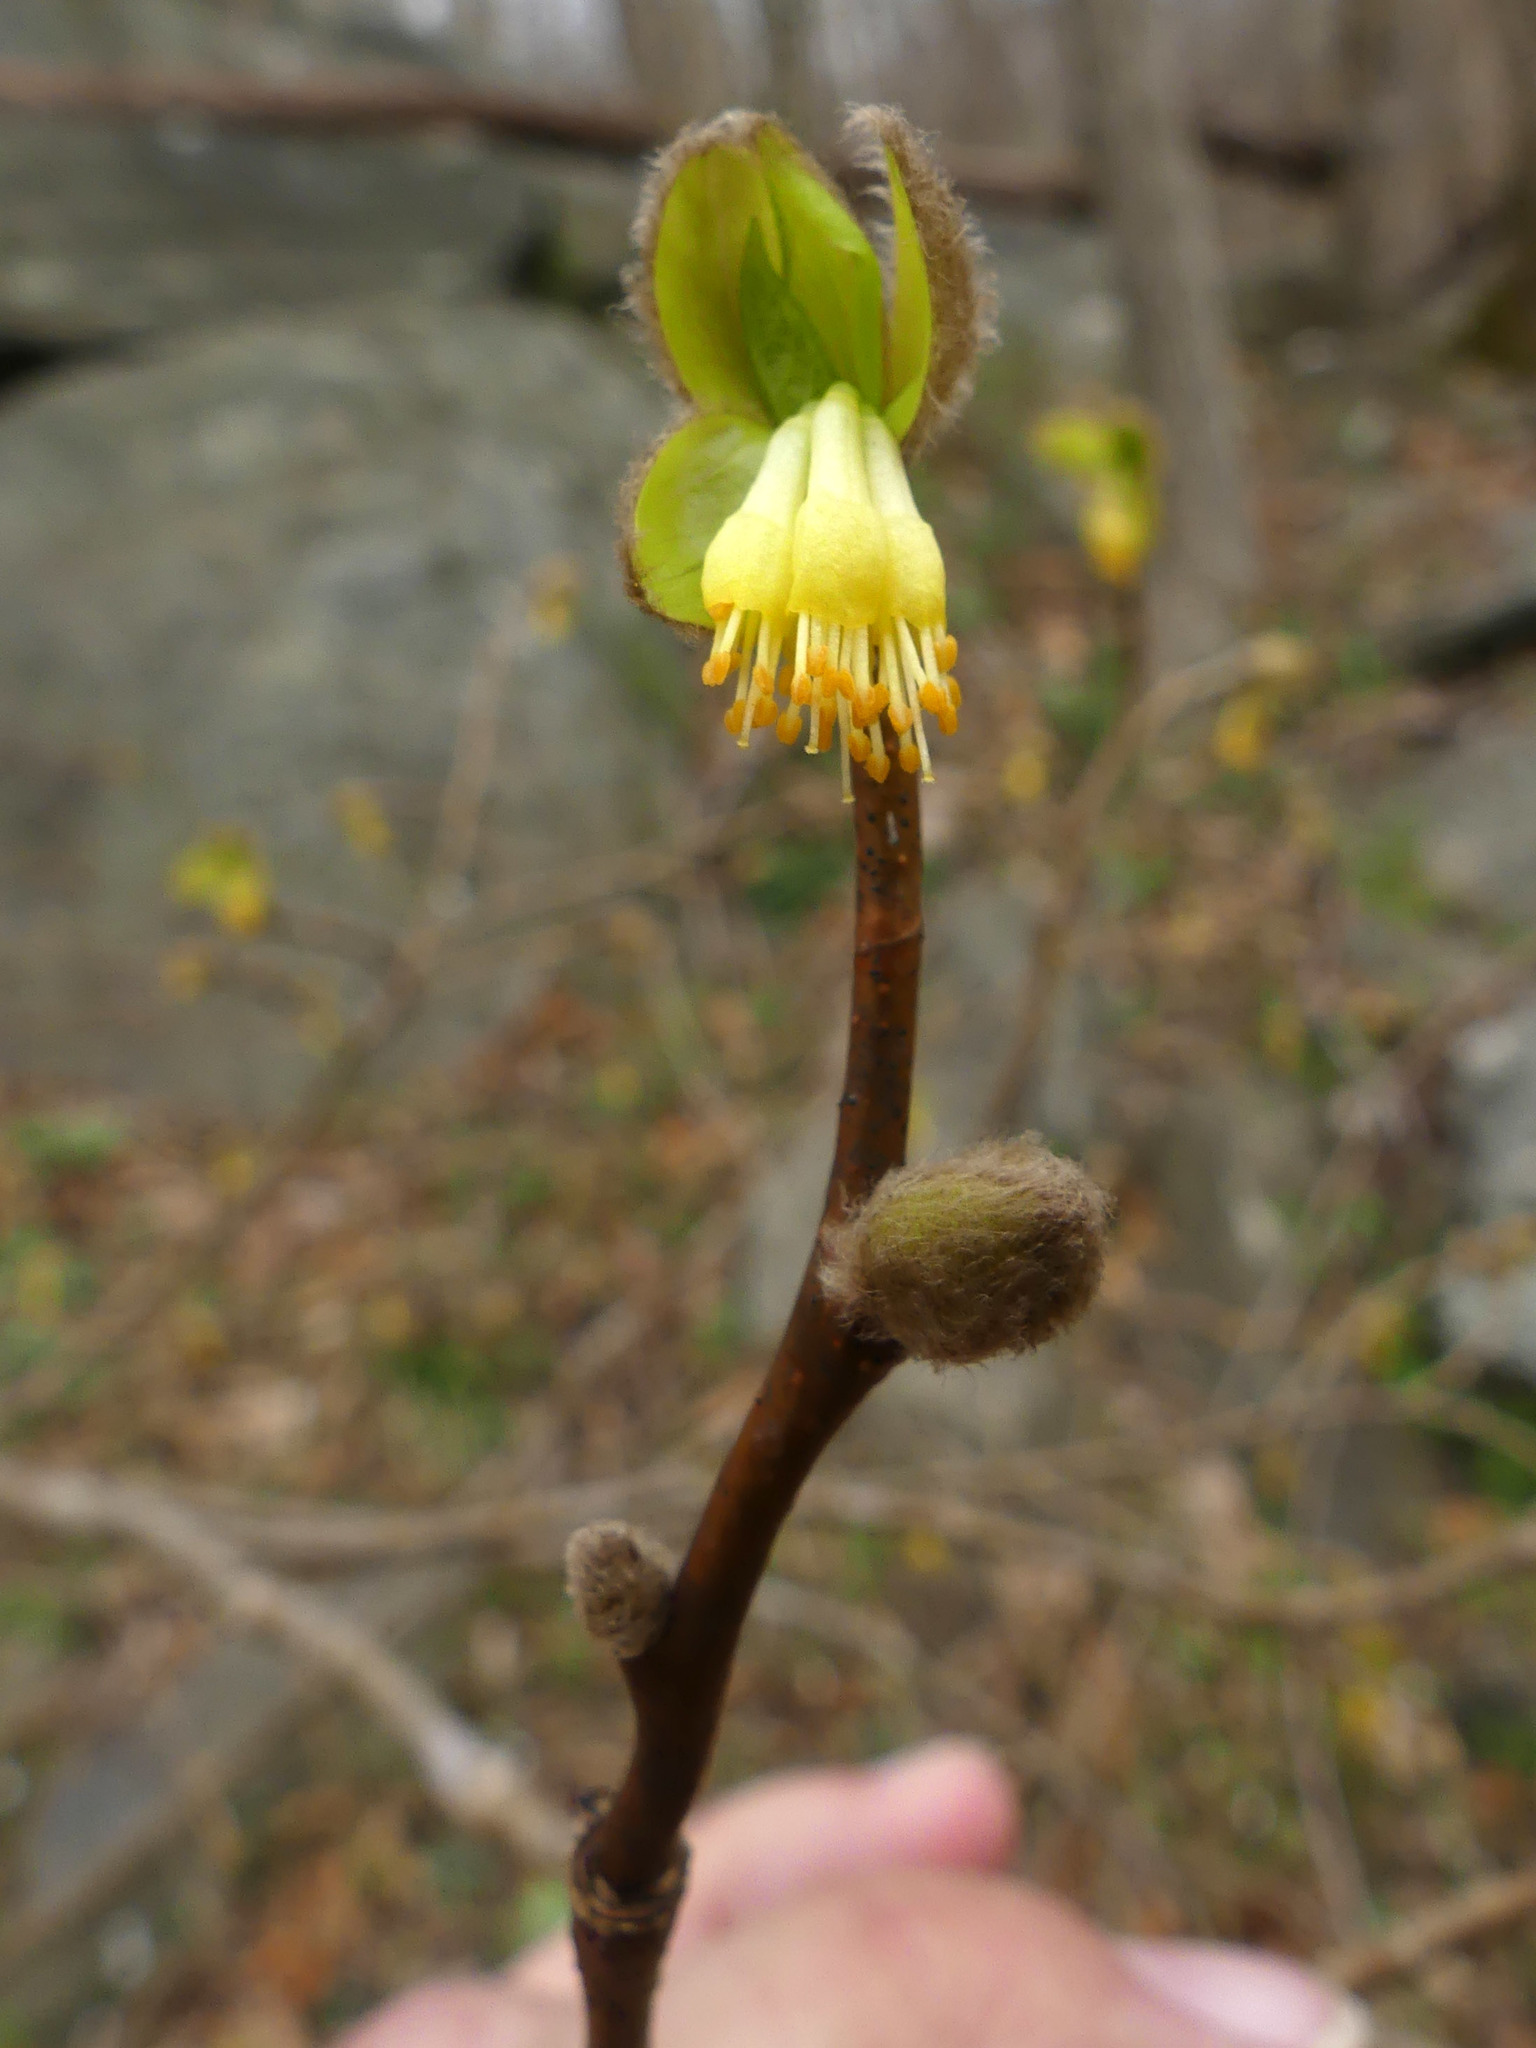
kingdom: Plantae
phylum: Tracheophyta
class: Magnoliopsida
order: Malvales
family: Thymelaeaceae
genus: Dirca
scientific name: Dirca palustris
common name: Leatherwood
